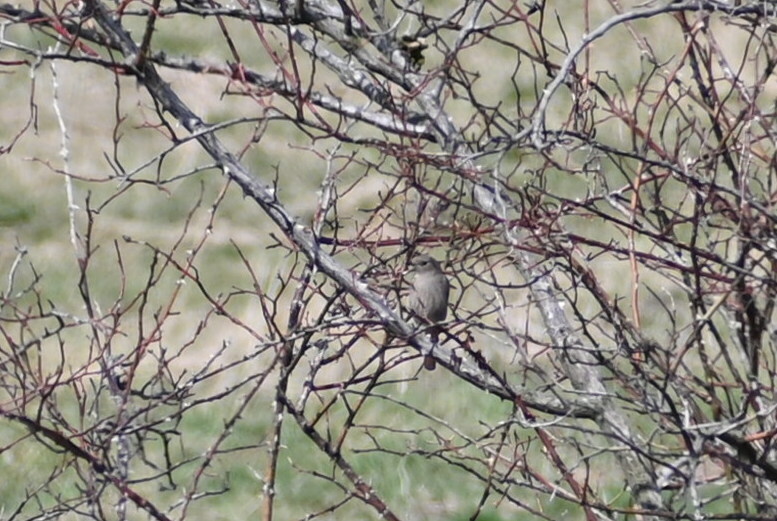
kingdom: Animalia
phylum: Chordata
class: Aves
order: Passeriformes
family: Muscicapidae
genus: Phoenicurus
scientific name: Phoenicurus ochruros
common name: Black redstart
